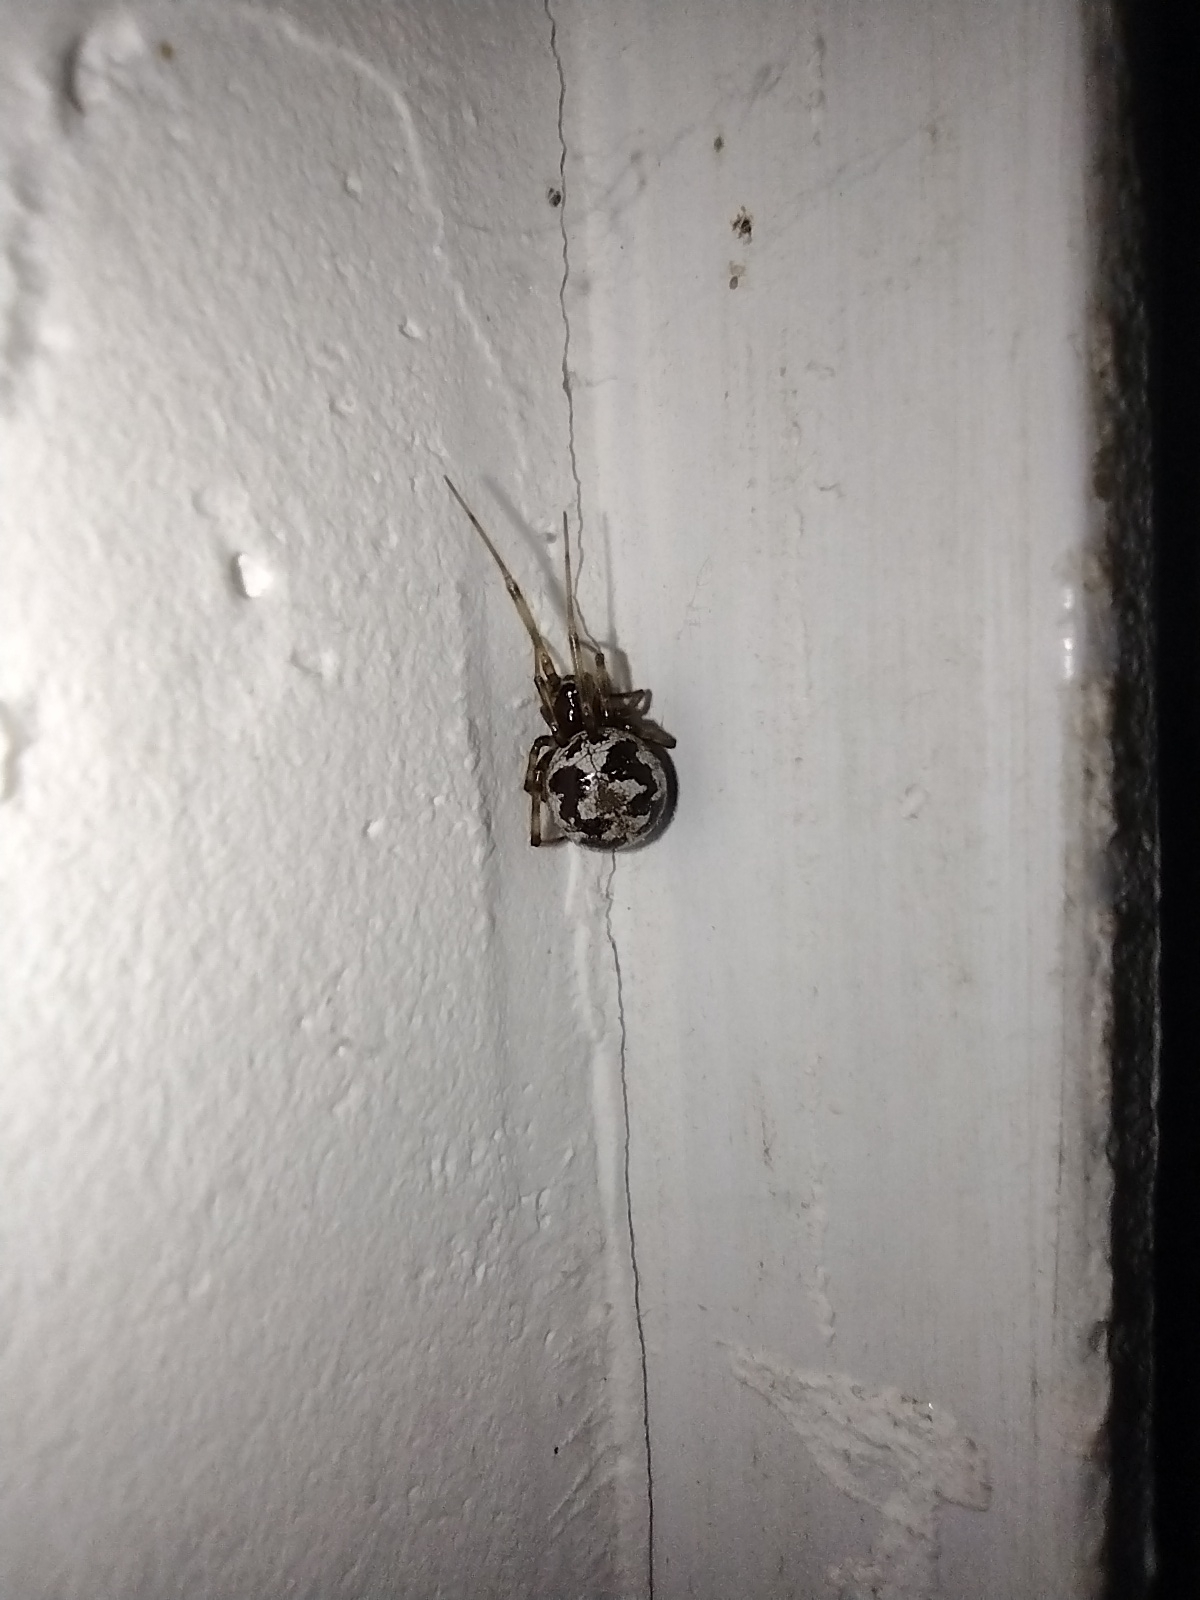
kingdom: Animalia
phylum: Arthropoda
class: Arachnida
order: Araneae
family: Theridiidae
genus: Steatoda
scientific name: Steatoda triangulosa
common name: Triangulate bud spider
